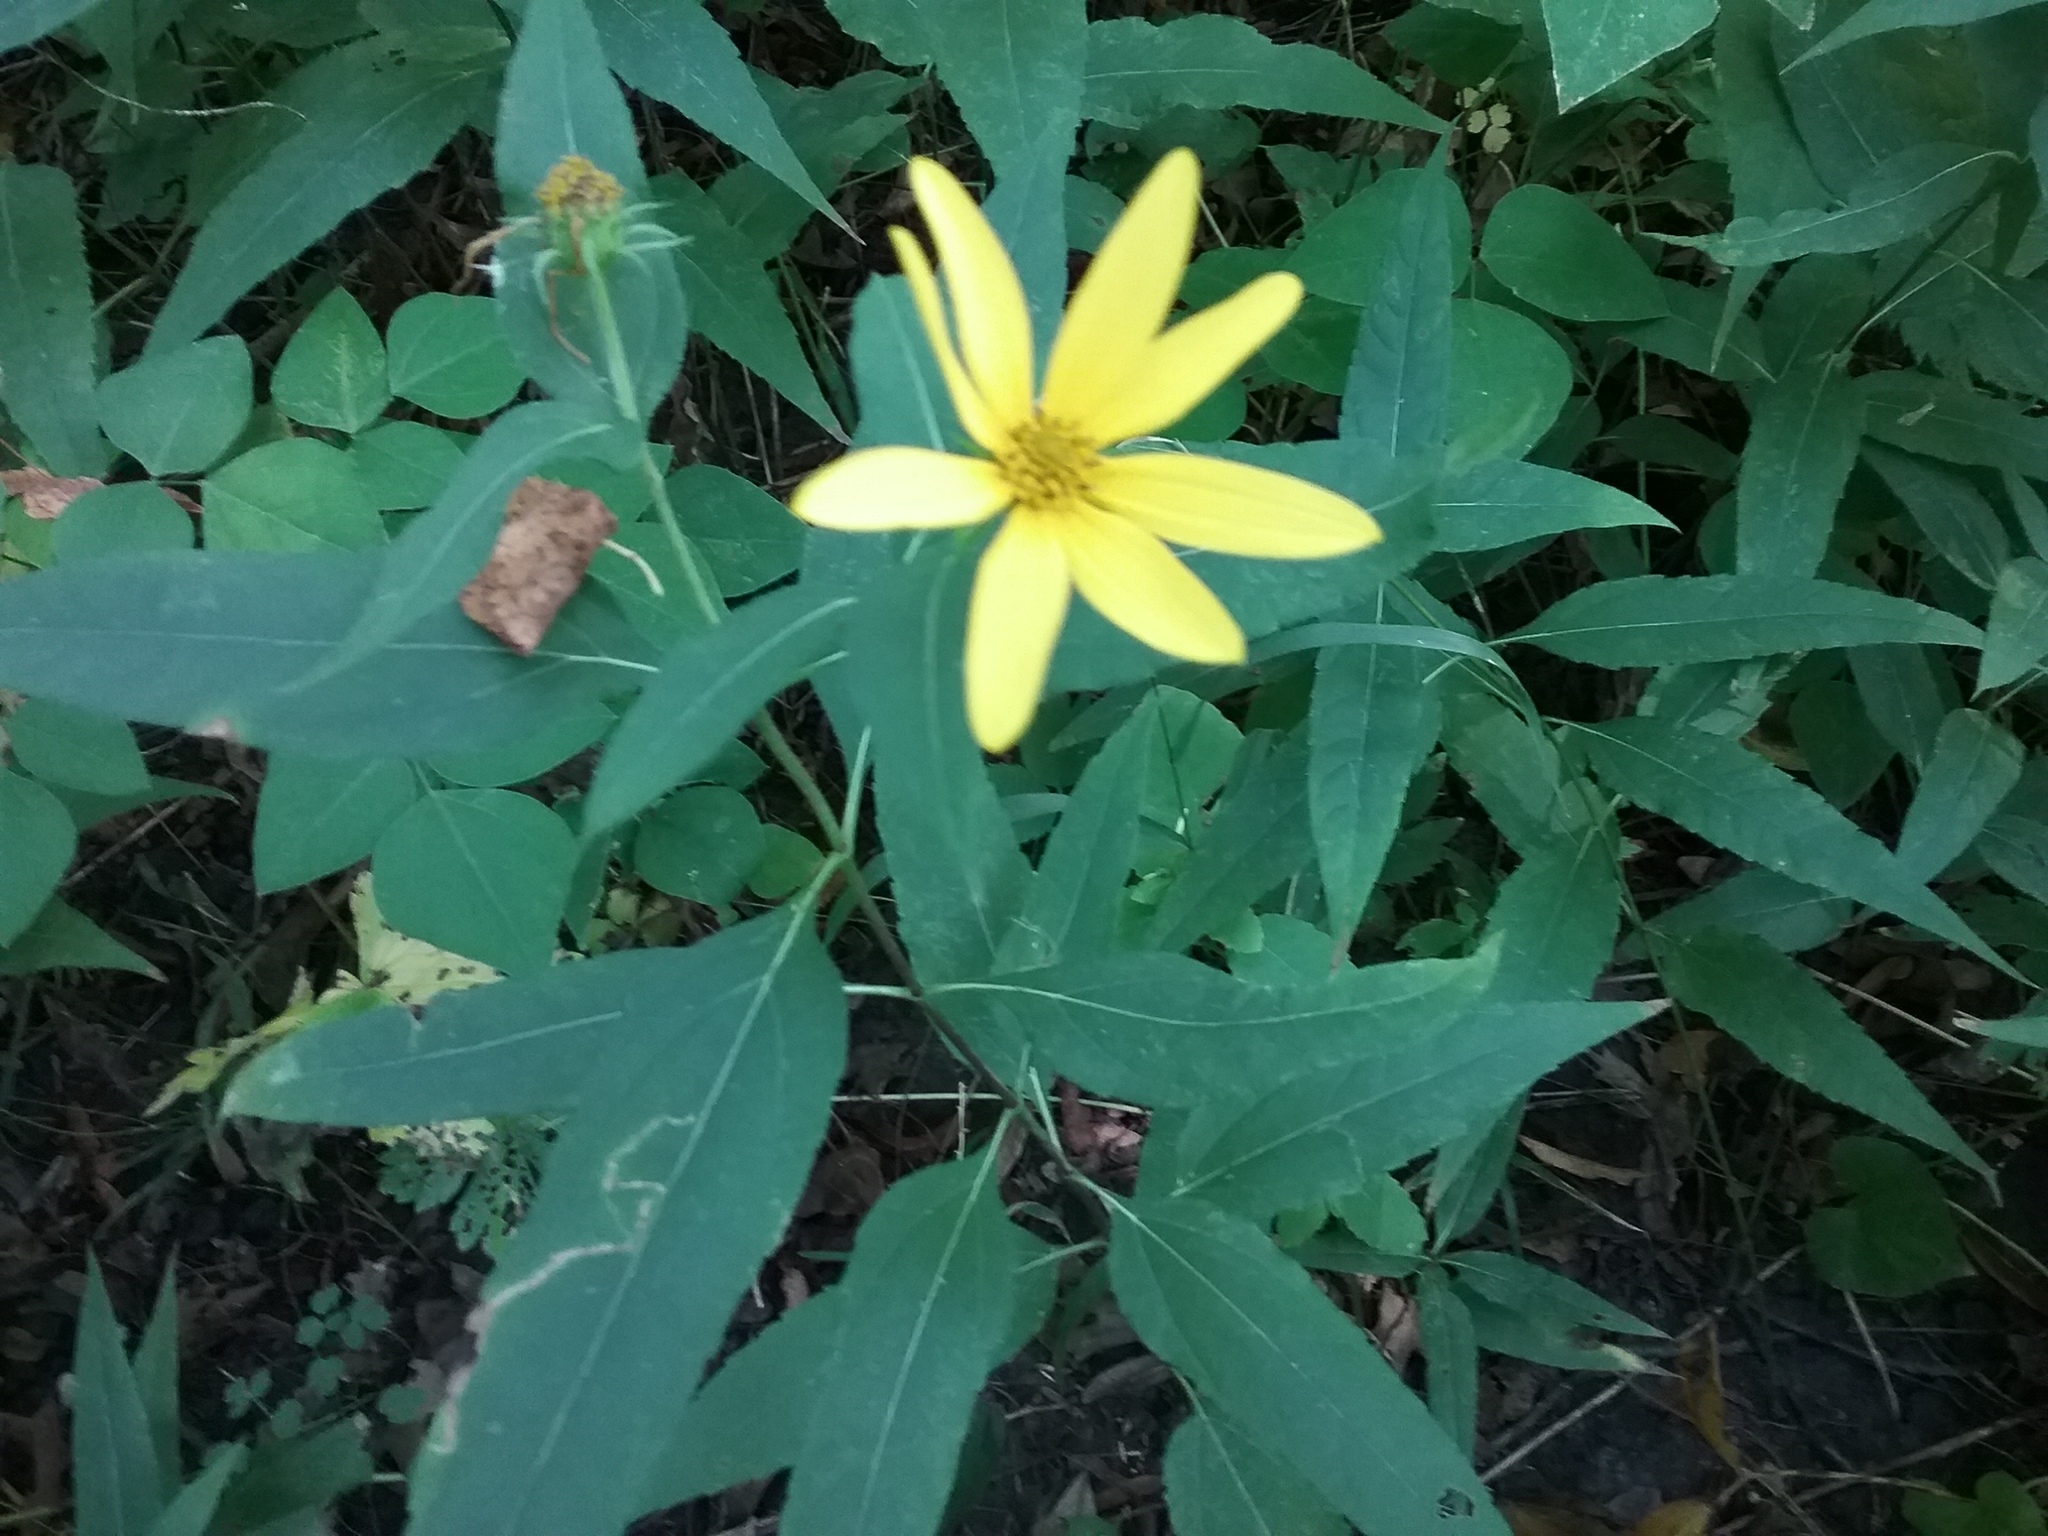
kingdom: Plantae
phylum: Tracheophyta
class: Magnoliopsida
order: Asterales
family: Asteraceae
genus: Helianthus
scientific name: Helianthus divaricatus
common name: Divergent sunflower
